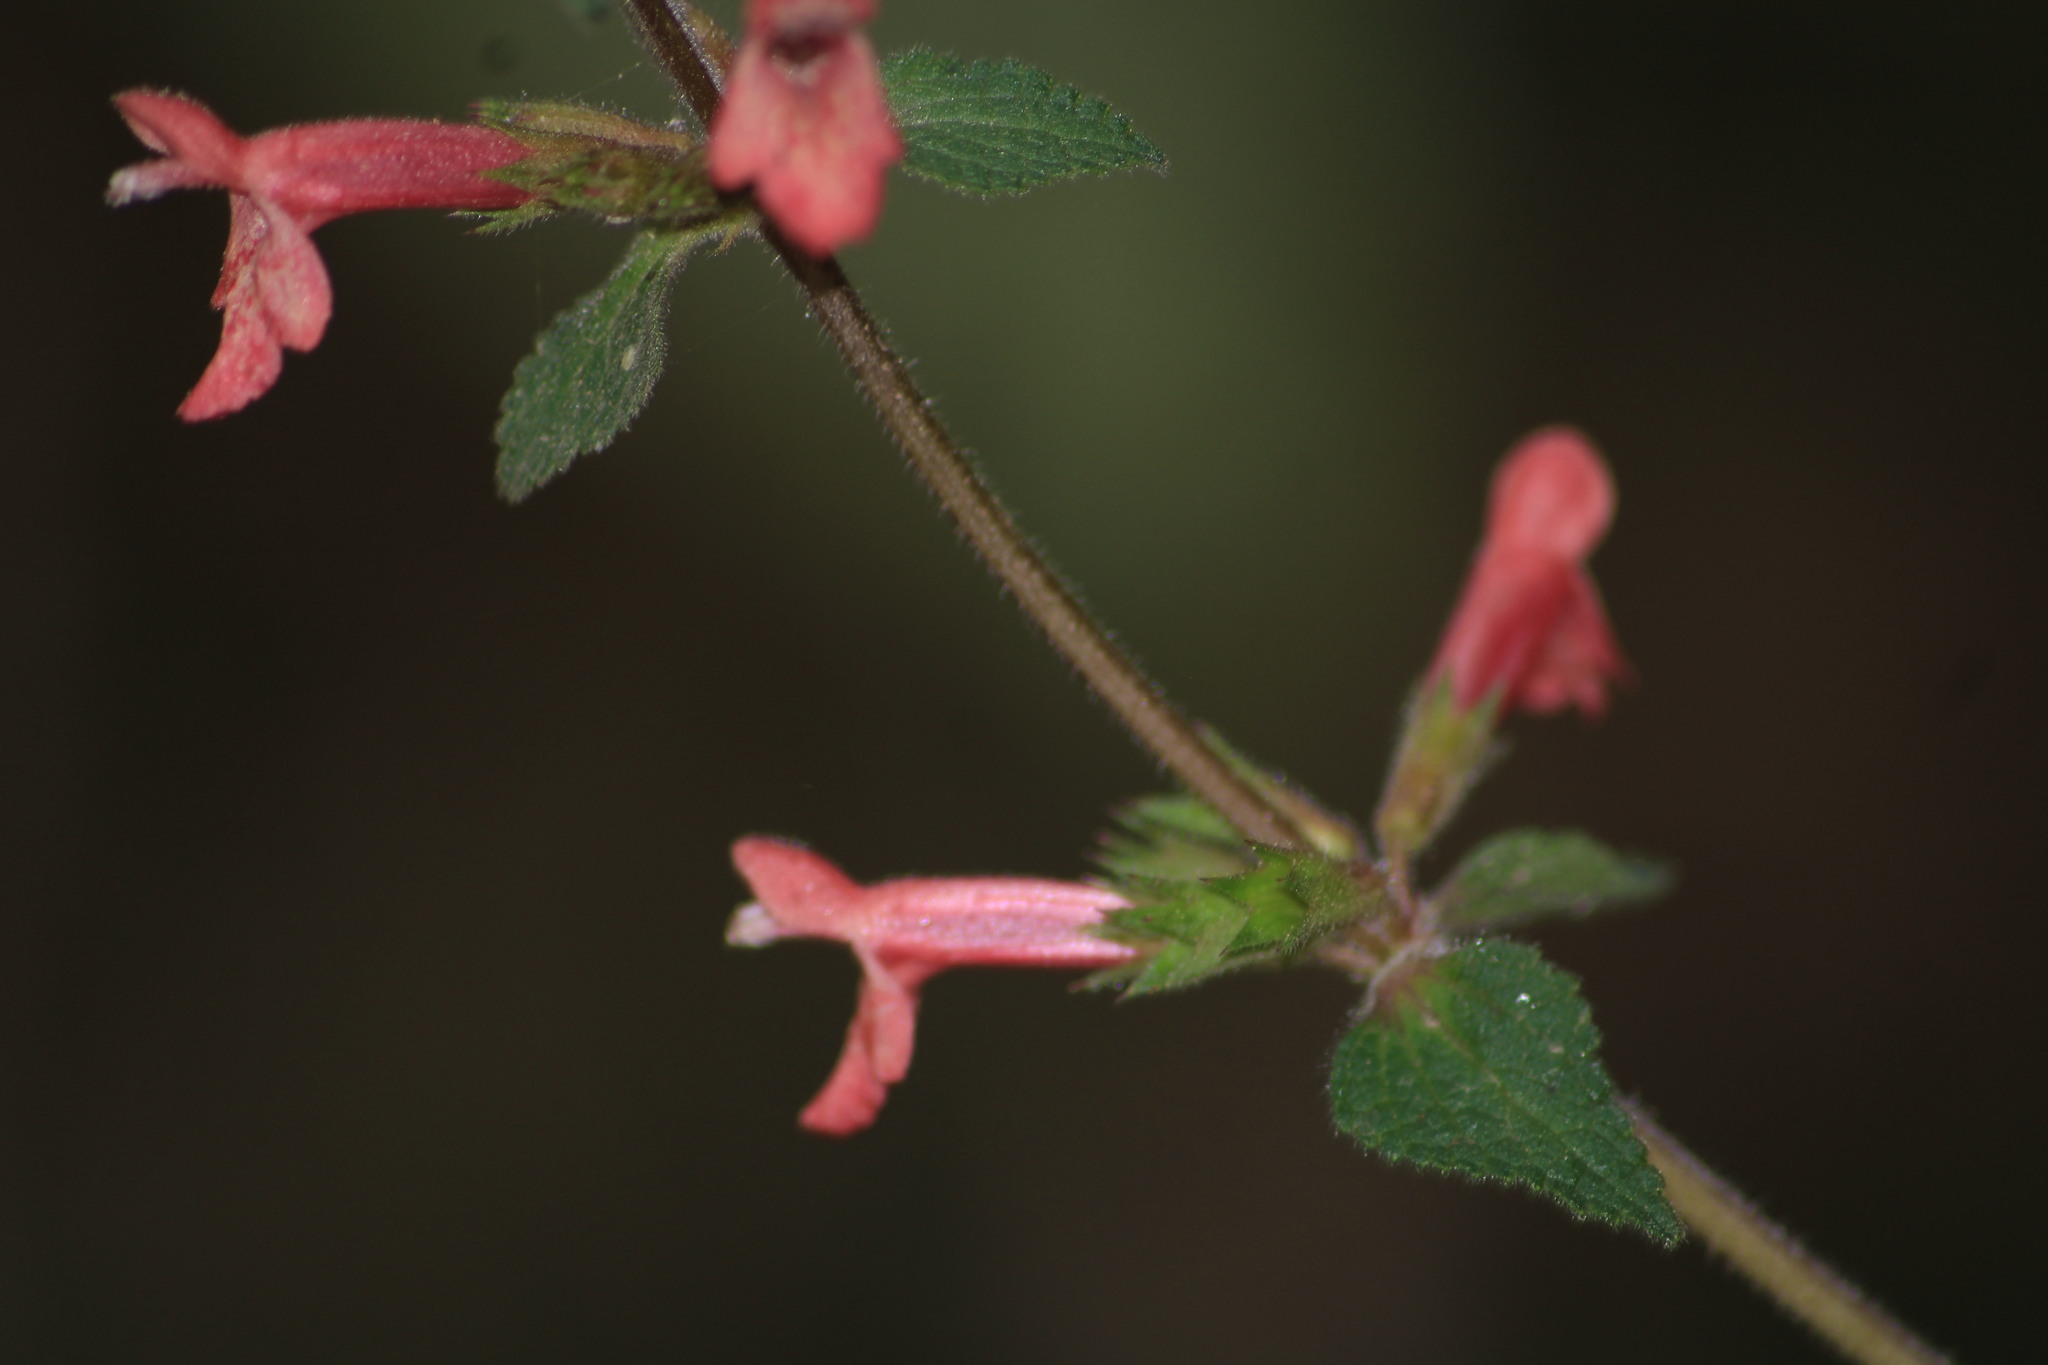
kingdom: Plantae
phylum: Tracheophyta
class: Magnoliopsida
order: Lamiales
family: Lamiaceae
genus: Stachys
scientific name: Stachys coccinea
